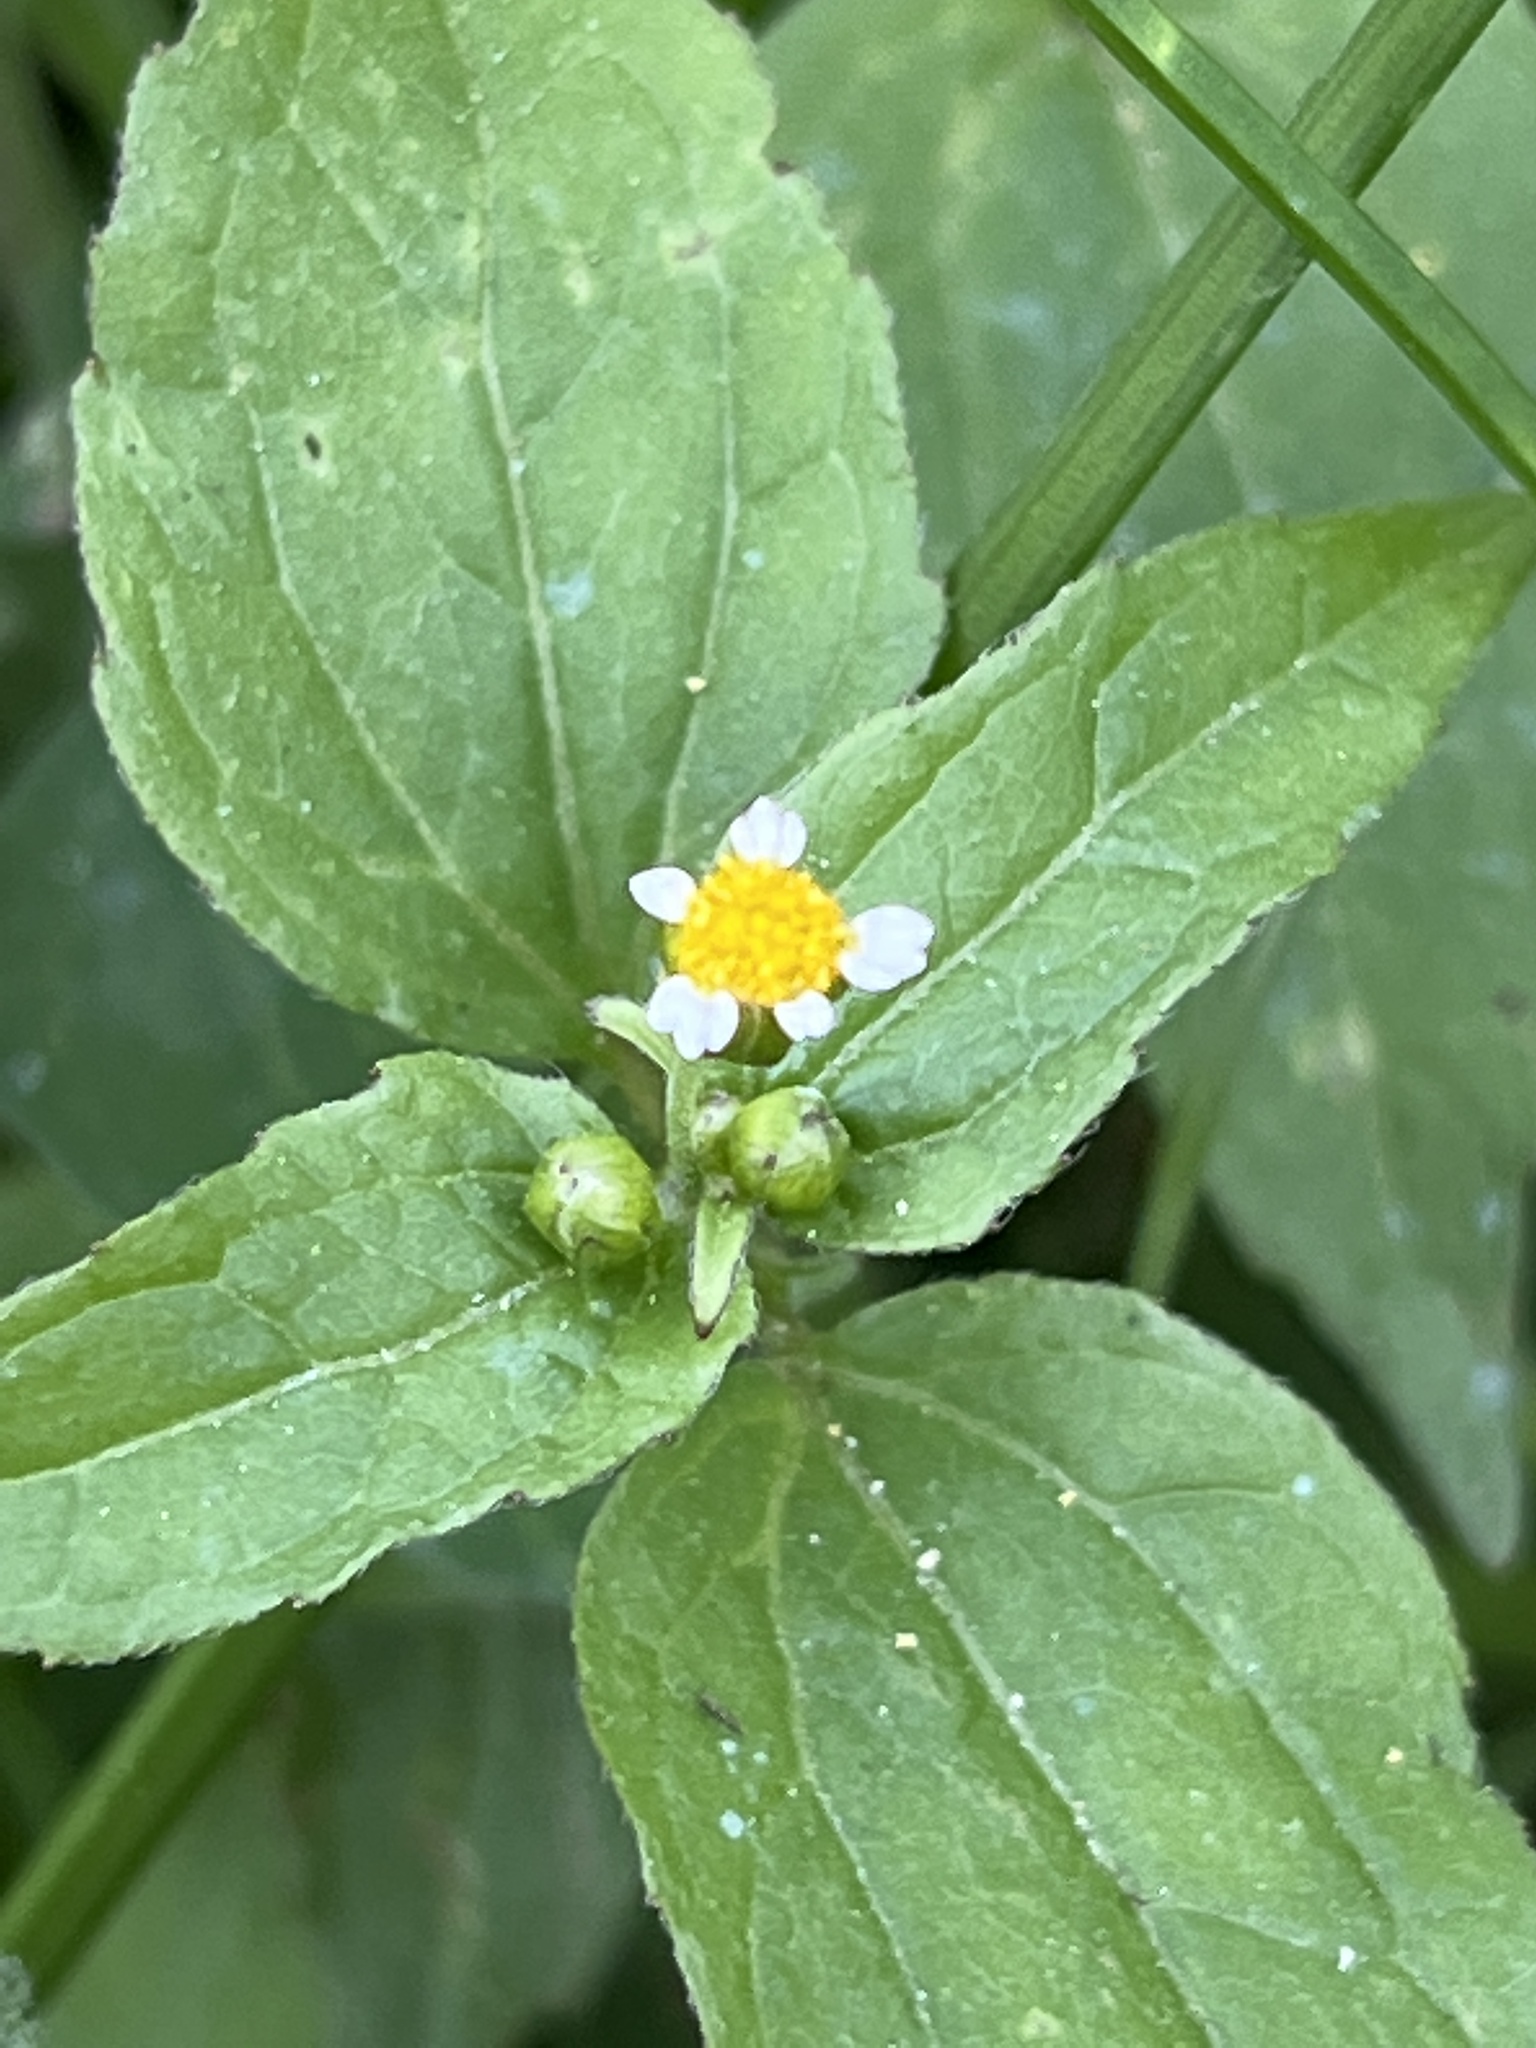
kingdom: Plantae
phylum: Tracheophyta
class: Magnoliopsida
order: Asterales
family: Asteraceae
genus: Galinsoga
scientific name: Galinsoga parviflora
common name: Gallant soldier
